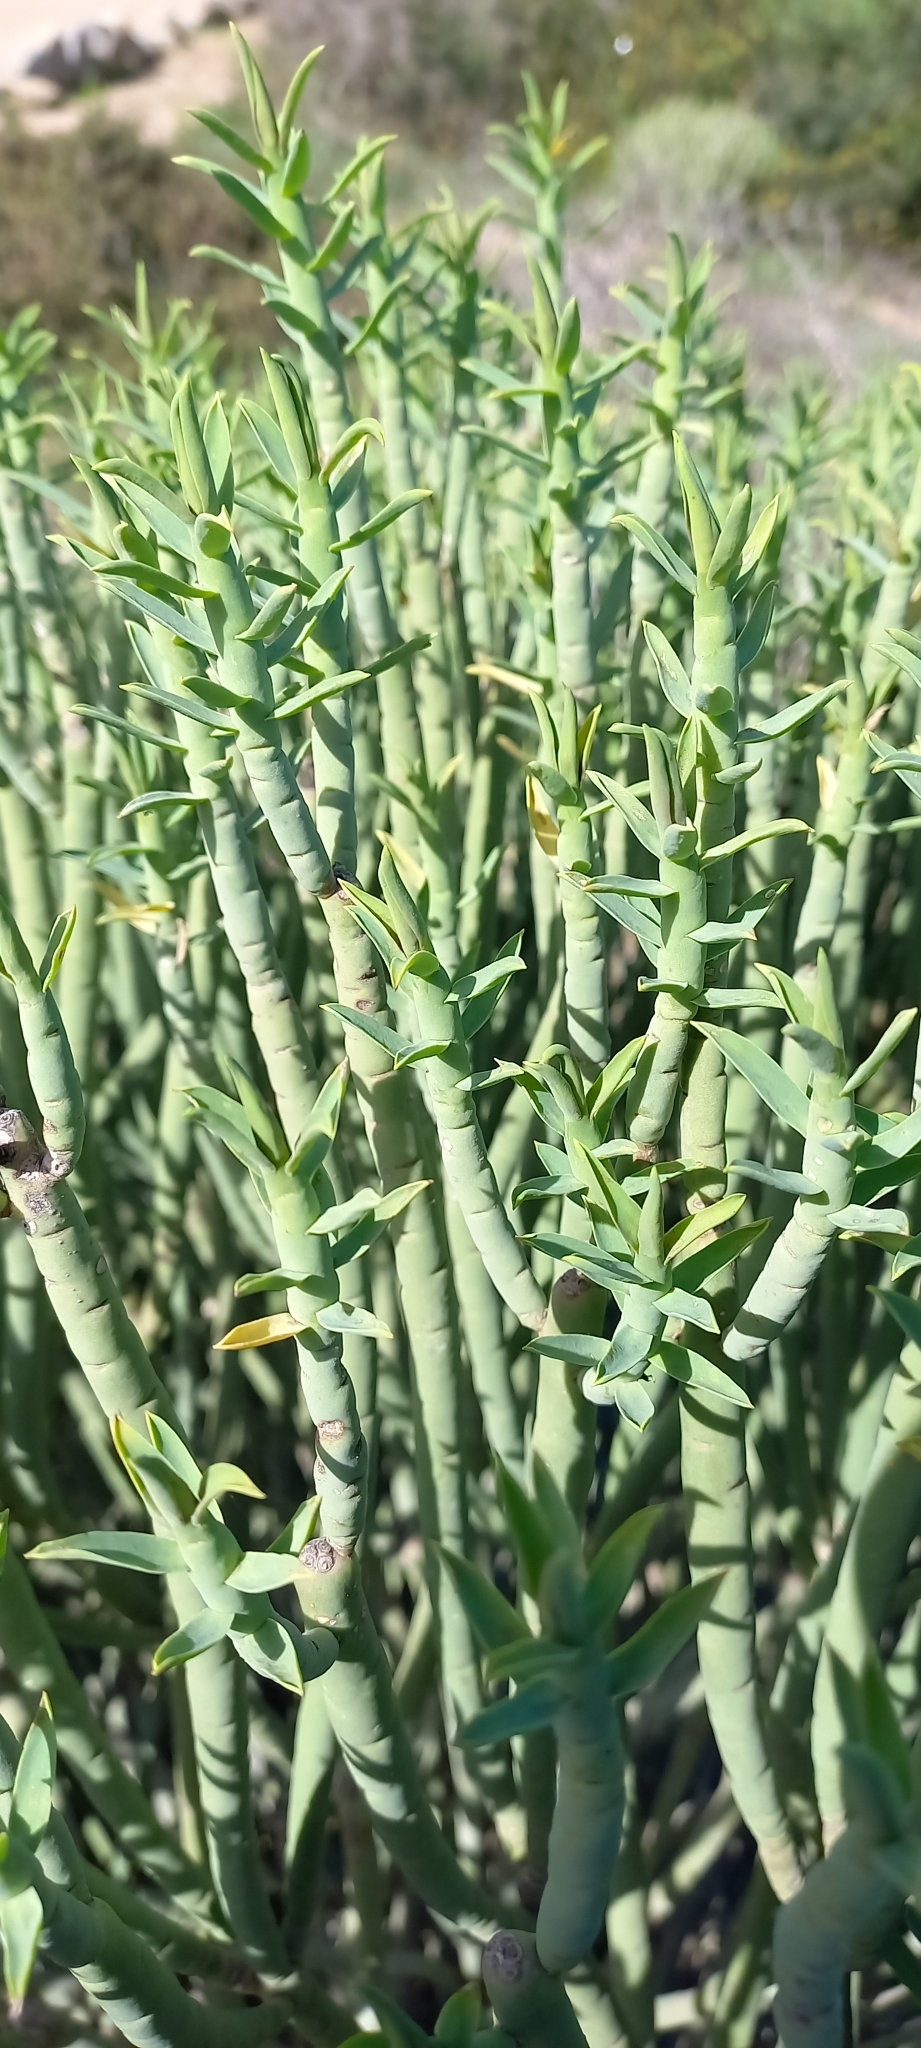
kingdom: Plantae
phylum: Tracheophyta
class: Magnoliopsida
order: Malpighiales
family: Euphorbiaceae
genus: Euphorbia
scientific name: Euphorbia mauritanica
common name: Jackal's-food
